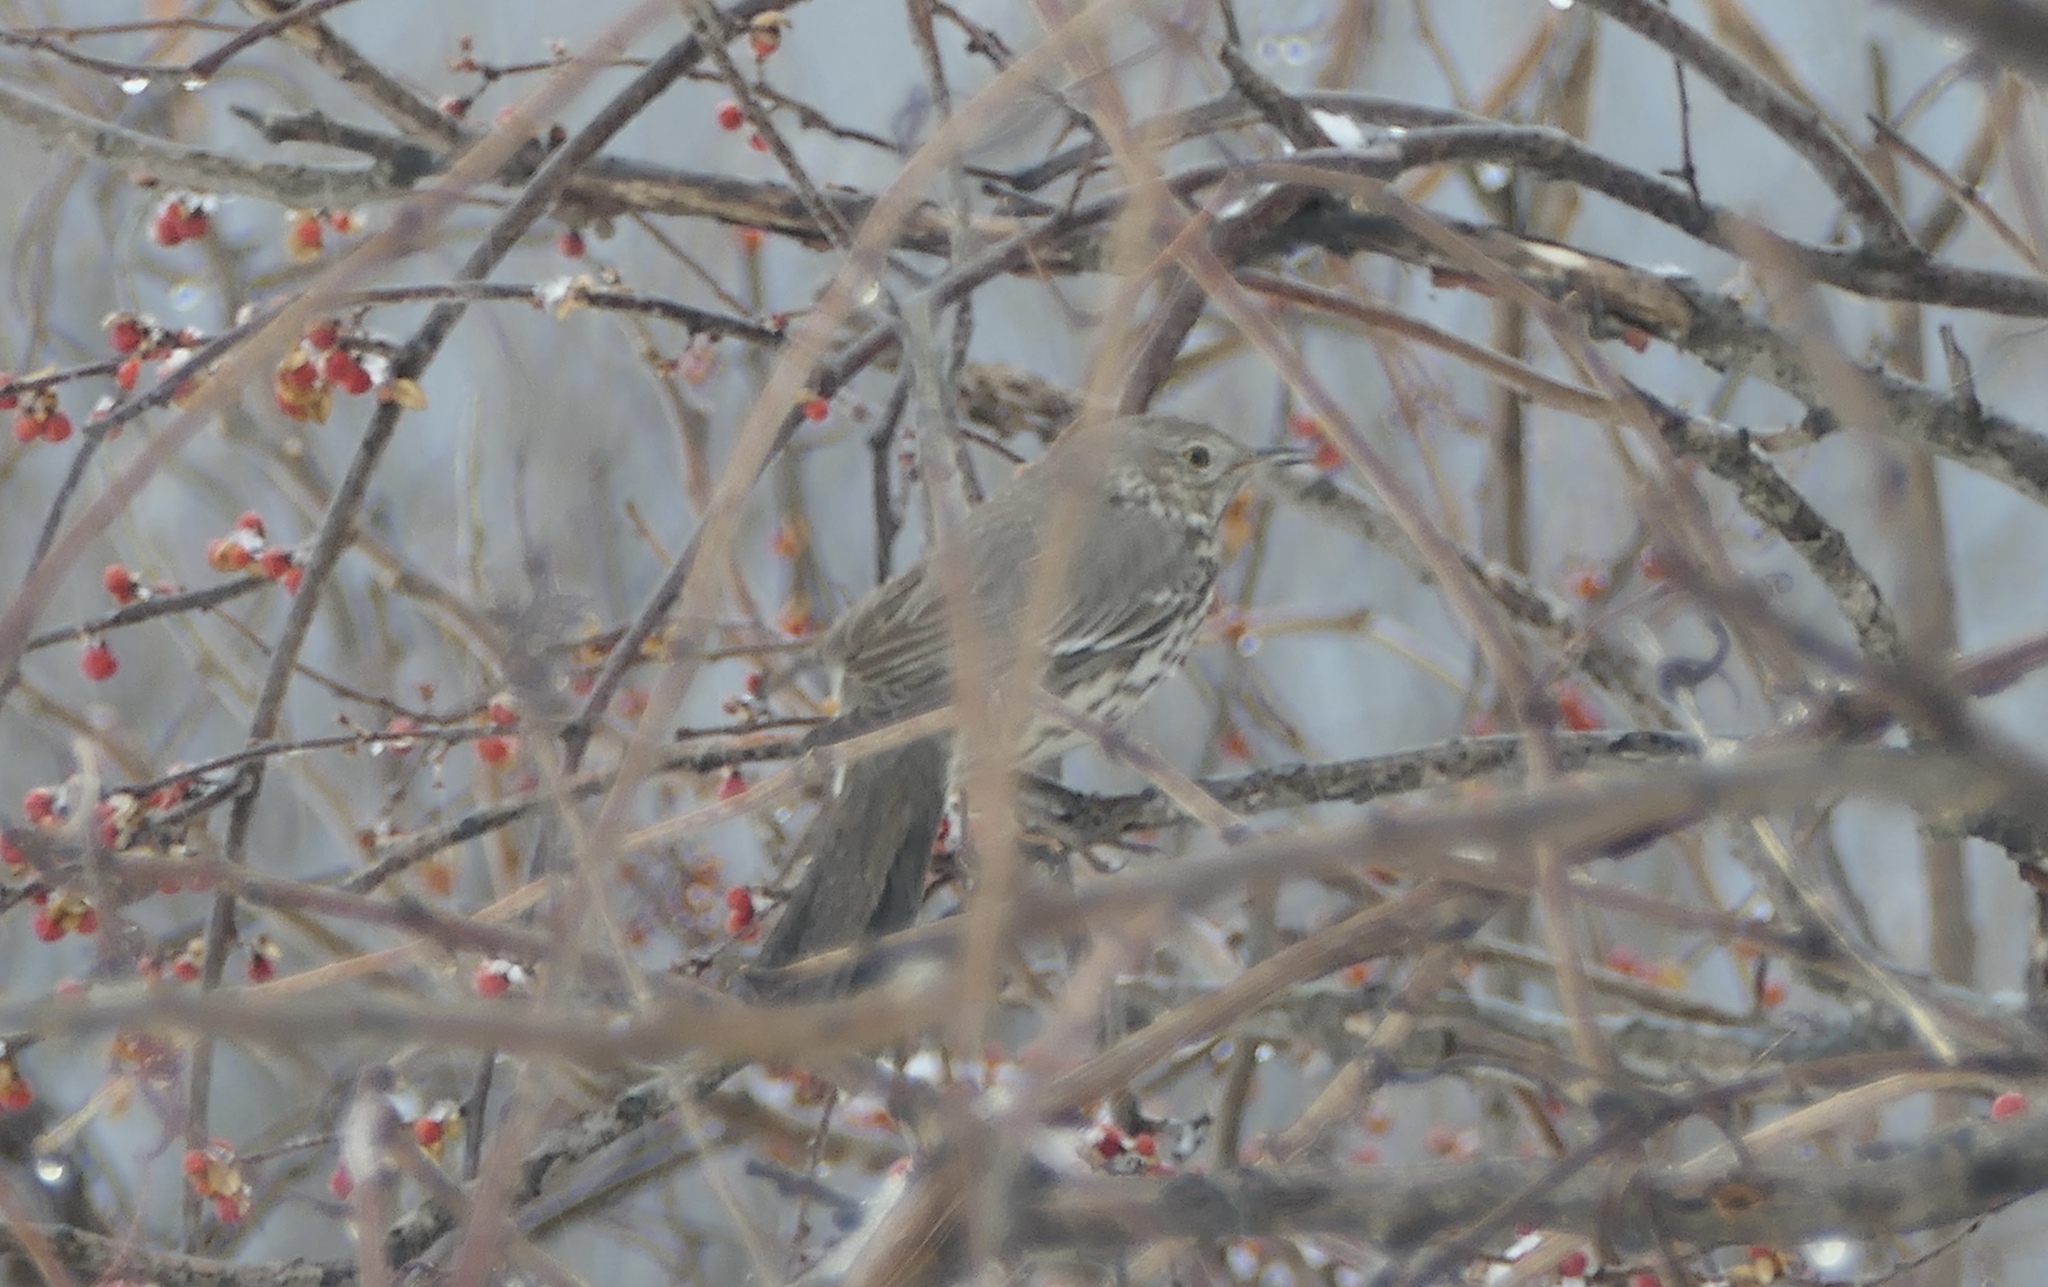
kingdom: Animalia
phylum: Chordata
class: Aves
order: Passeriformes
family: Mimidae
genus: Oreoscoptes
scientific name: Oreoscoptes montanus
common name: Sage thrasher
